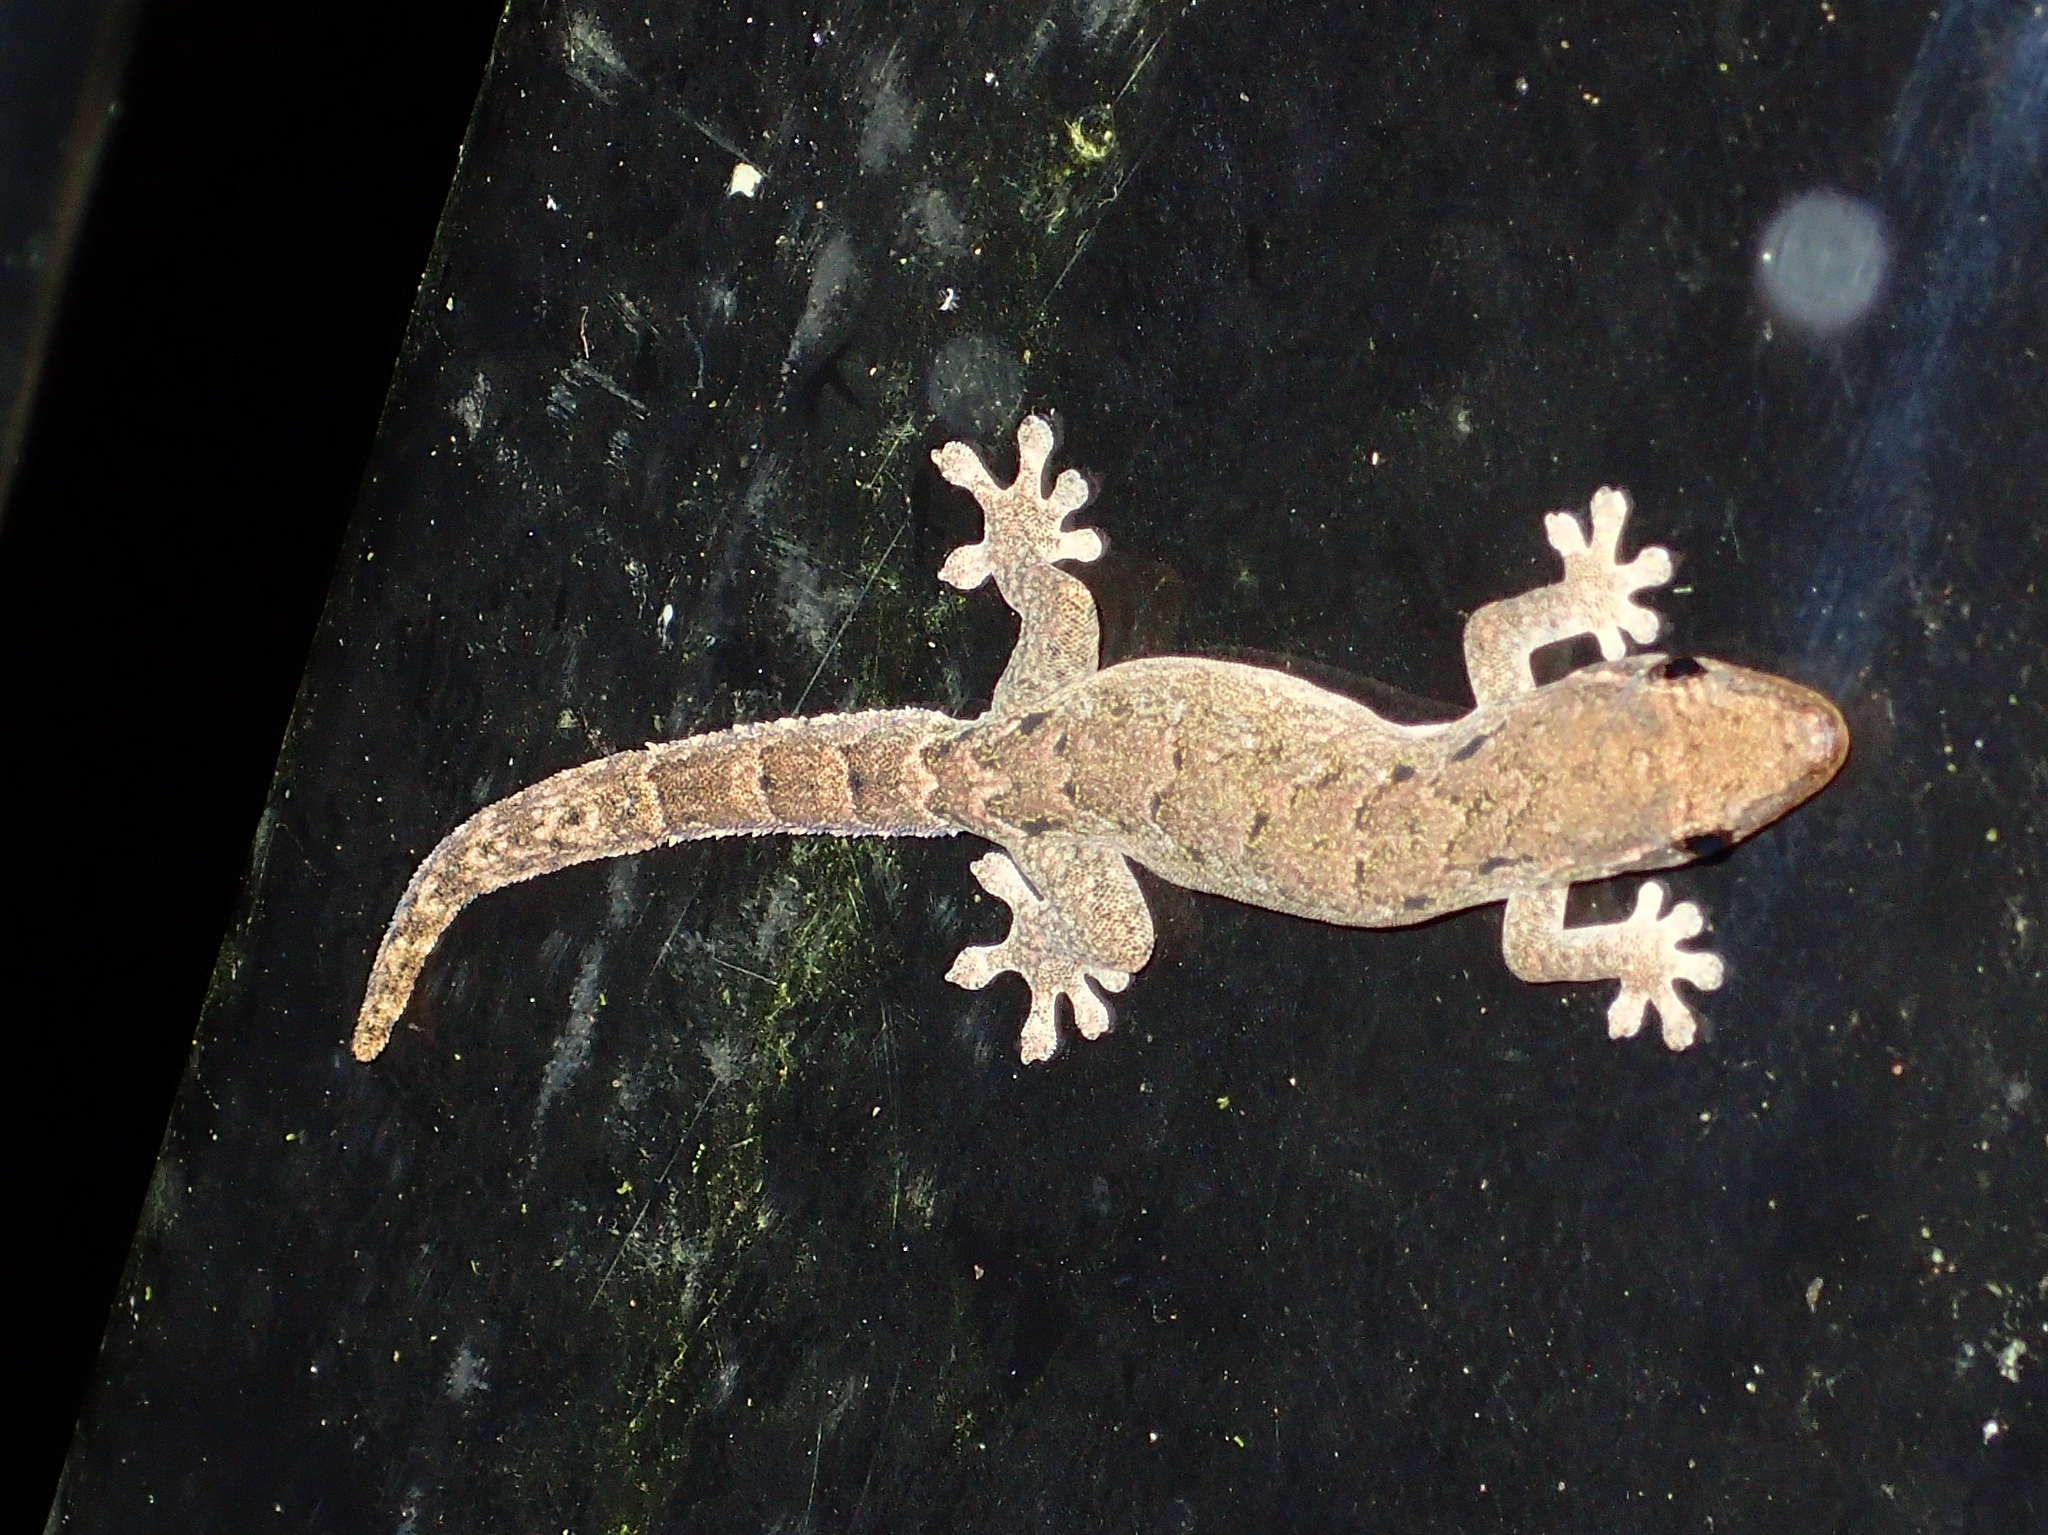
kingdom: Animalia
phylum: Chordata
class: Squamata
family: Gekkonidae
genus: Lepidodactylus
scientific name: Lepidodactylus lugubris
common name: Mourning gecko
